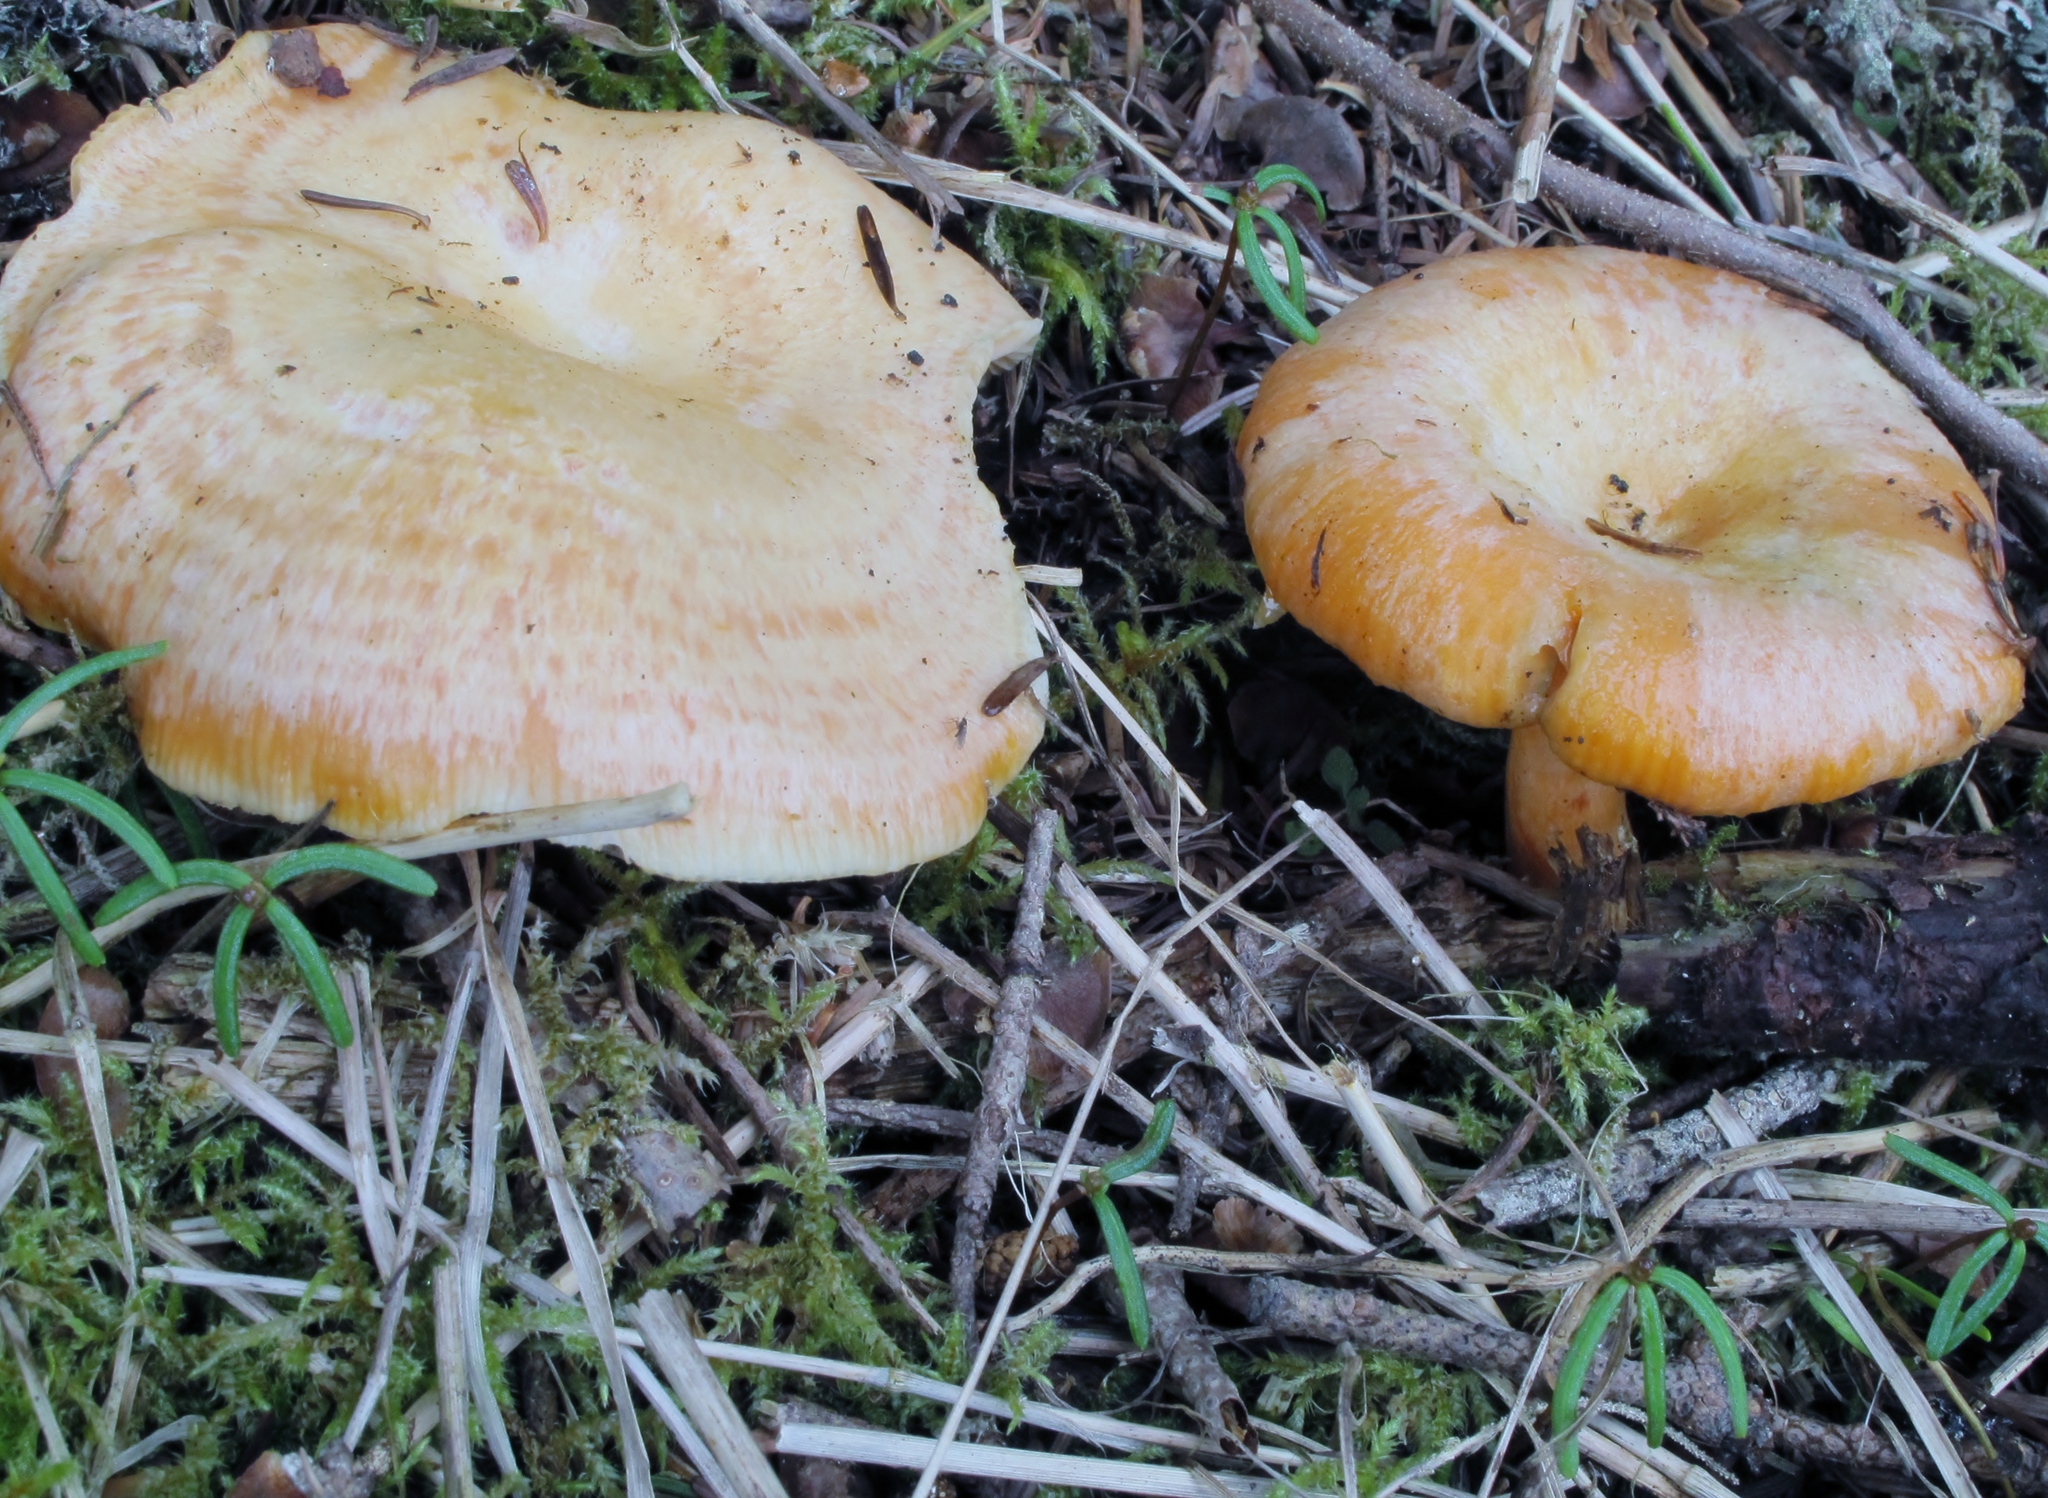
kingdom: Fungi
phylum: Basidiomycota
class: Agaricomycetes
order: Russulales
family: Russulaceae
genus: Lactarius
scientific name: Lactarius salmonicolor
